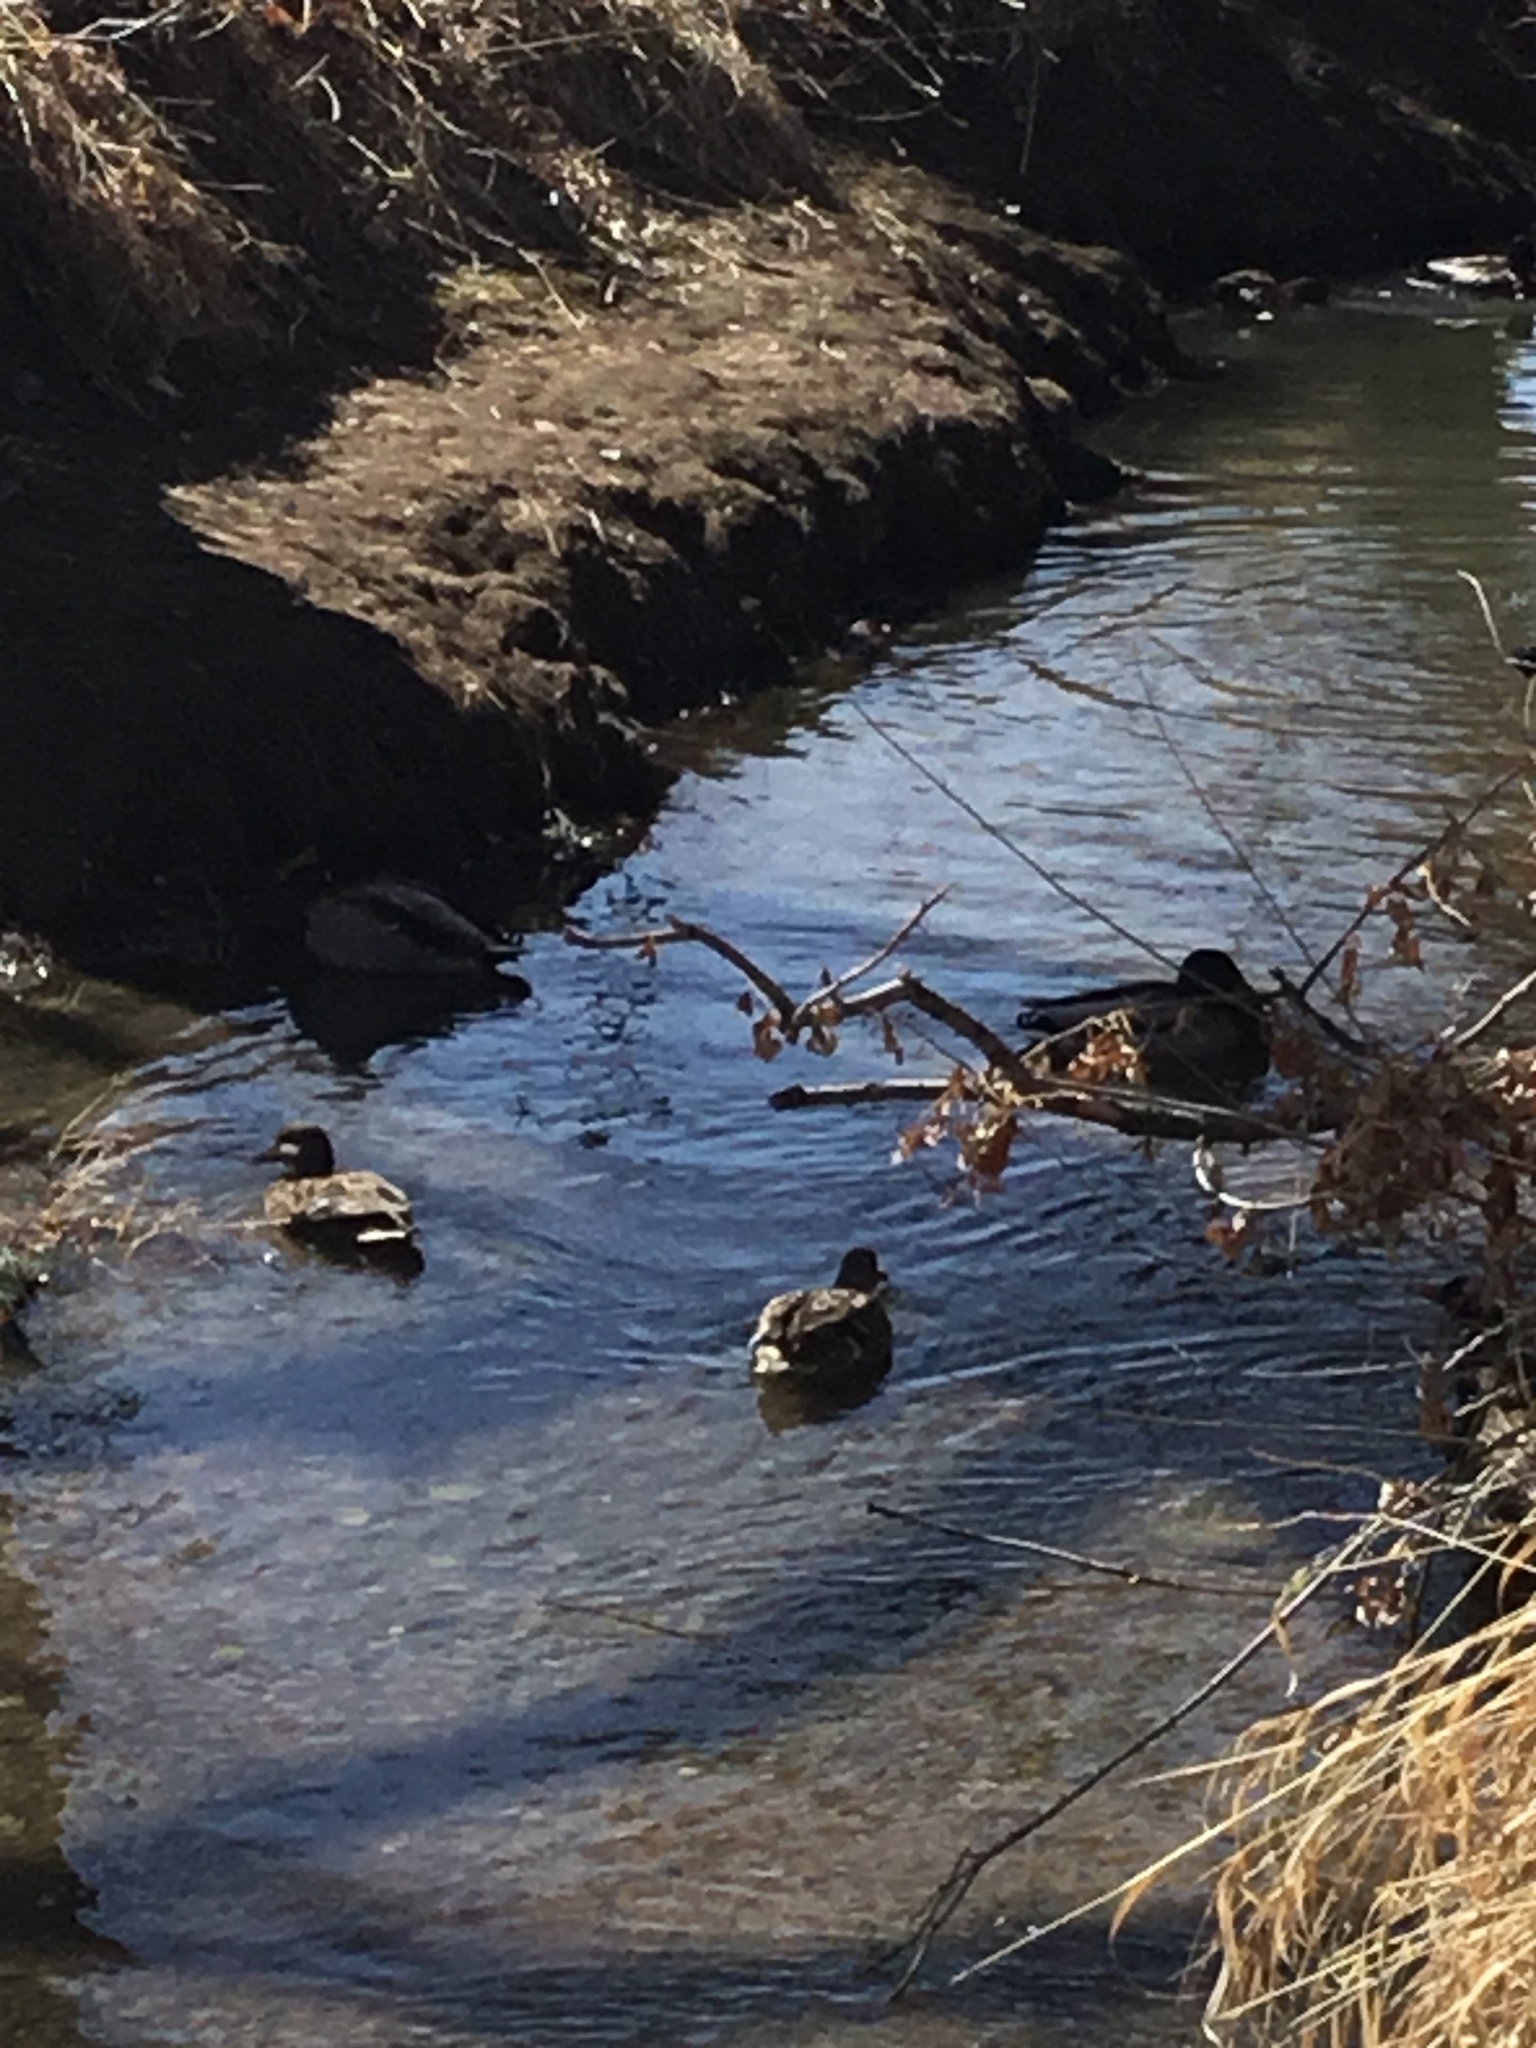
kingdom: Animalia
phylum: Chordata
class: Aves
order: Anseriformes
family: Anatidae
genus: Anas
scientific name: Anas platyrhynchos
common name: Mallard
